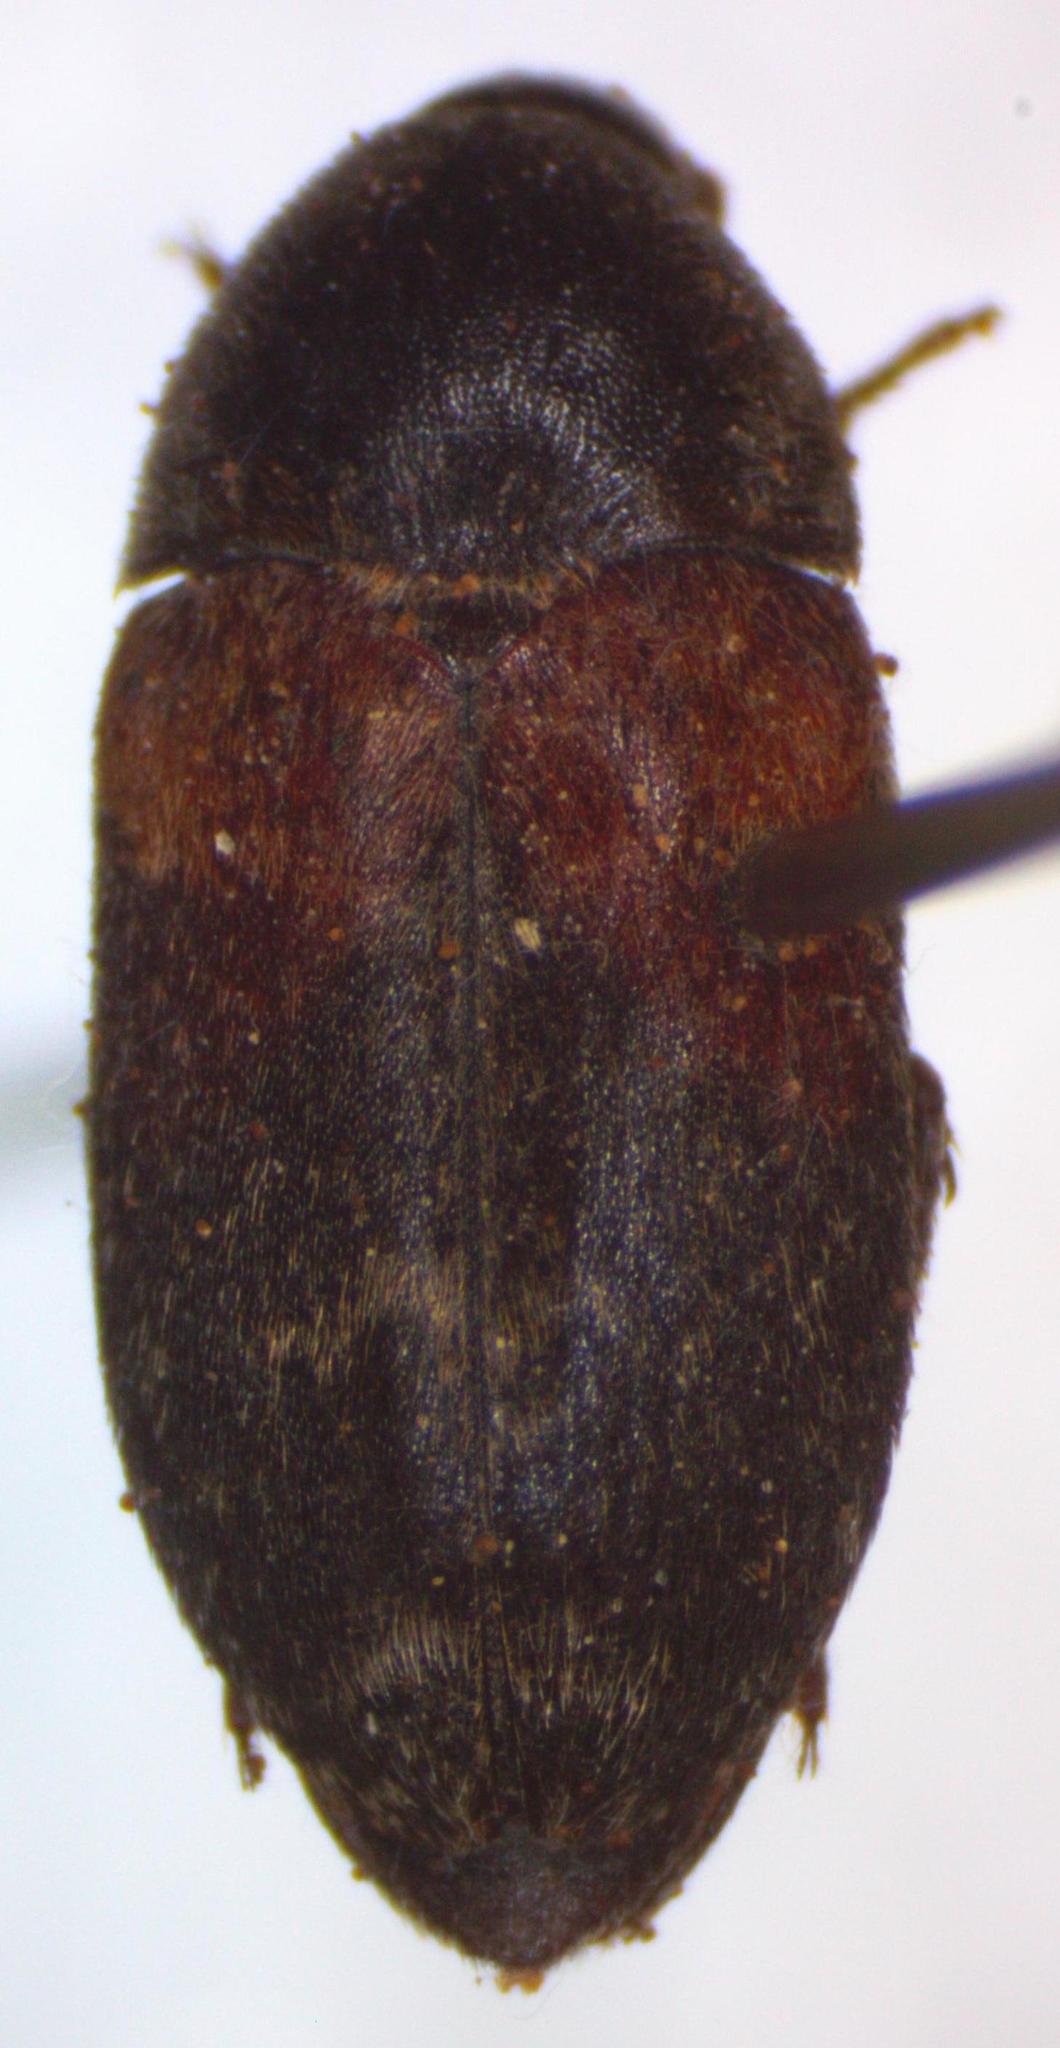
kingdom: Animalia
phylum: Arthropoda
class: Insecta
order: Coleoptera
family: Dermestidae
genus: Dermestes
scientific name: Dermestes carnivorus
